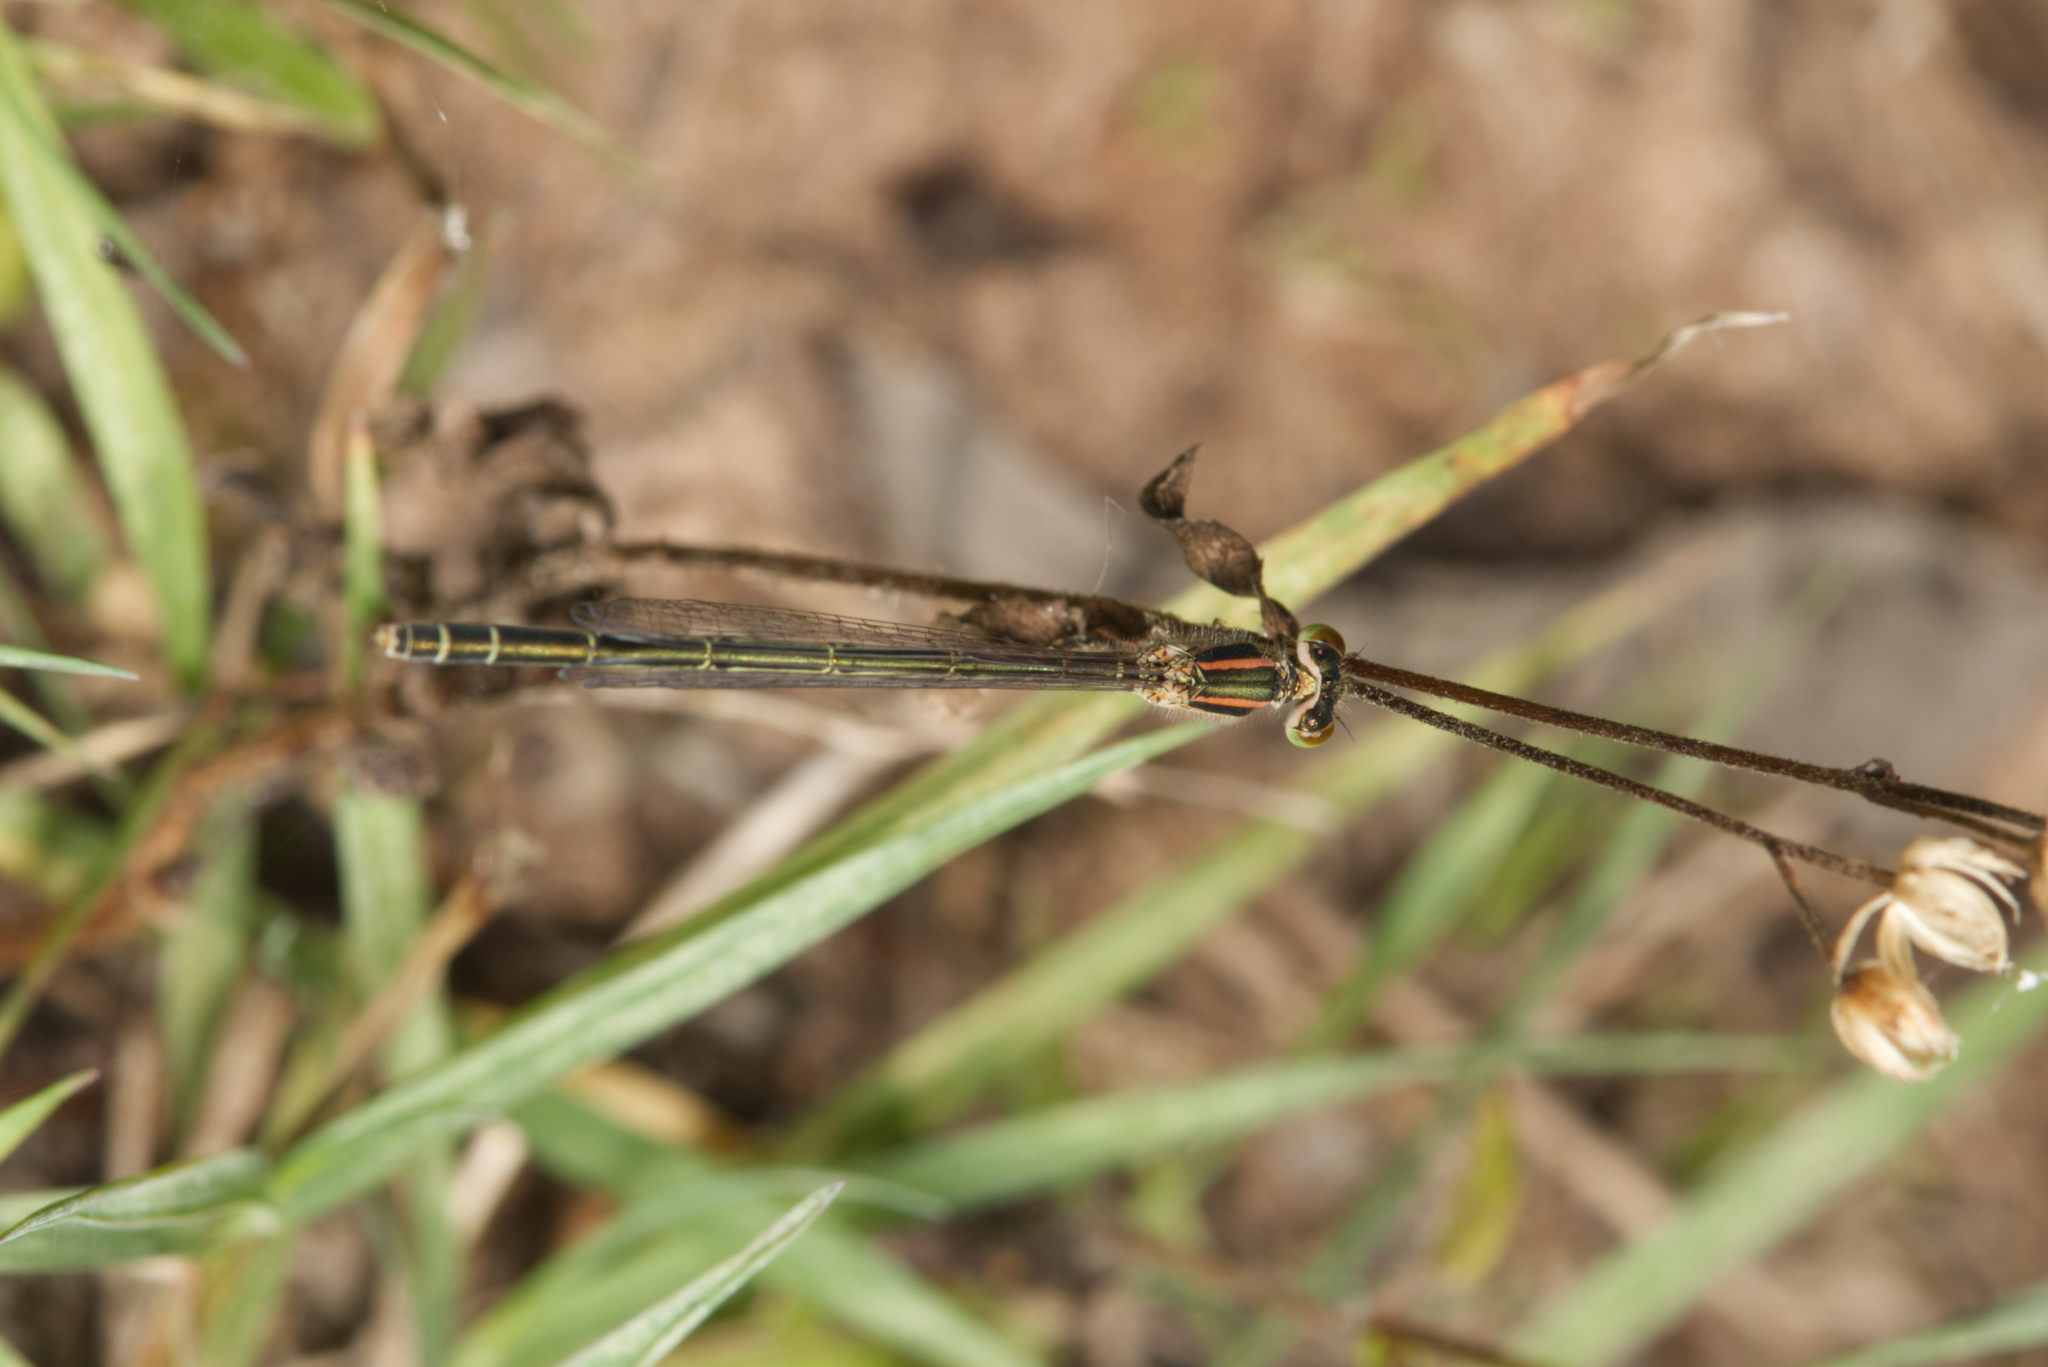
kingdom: Animalia
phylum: Arthropoda
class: Insecta
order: Odonata
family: Coenagrionidae
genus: Ischnura
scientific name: Ischnura aurora
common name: Gossamer damselfly
